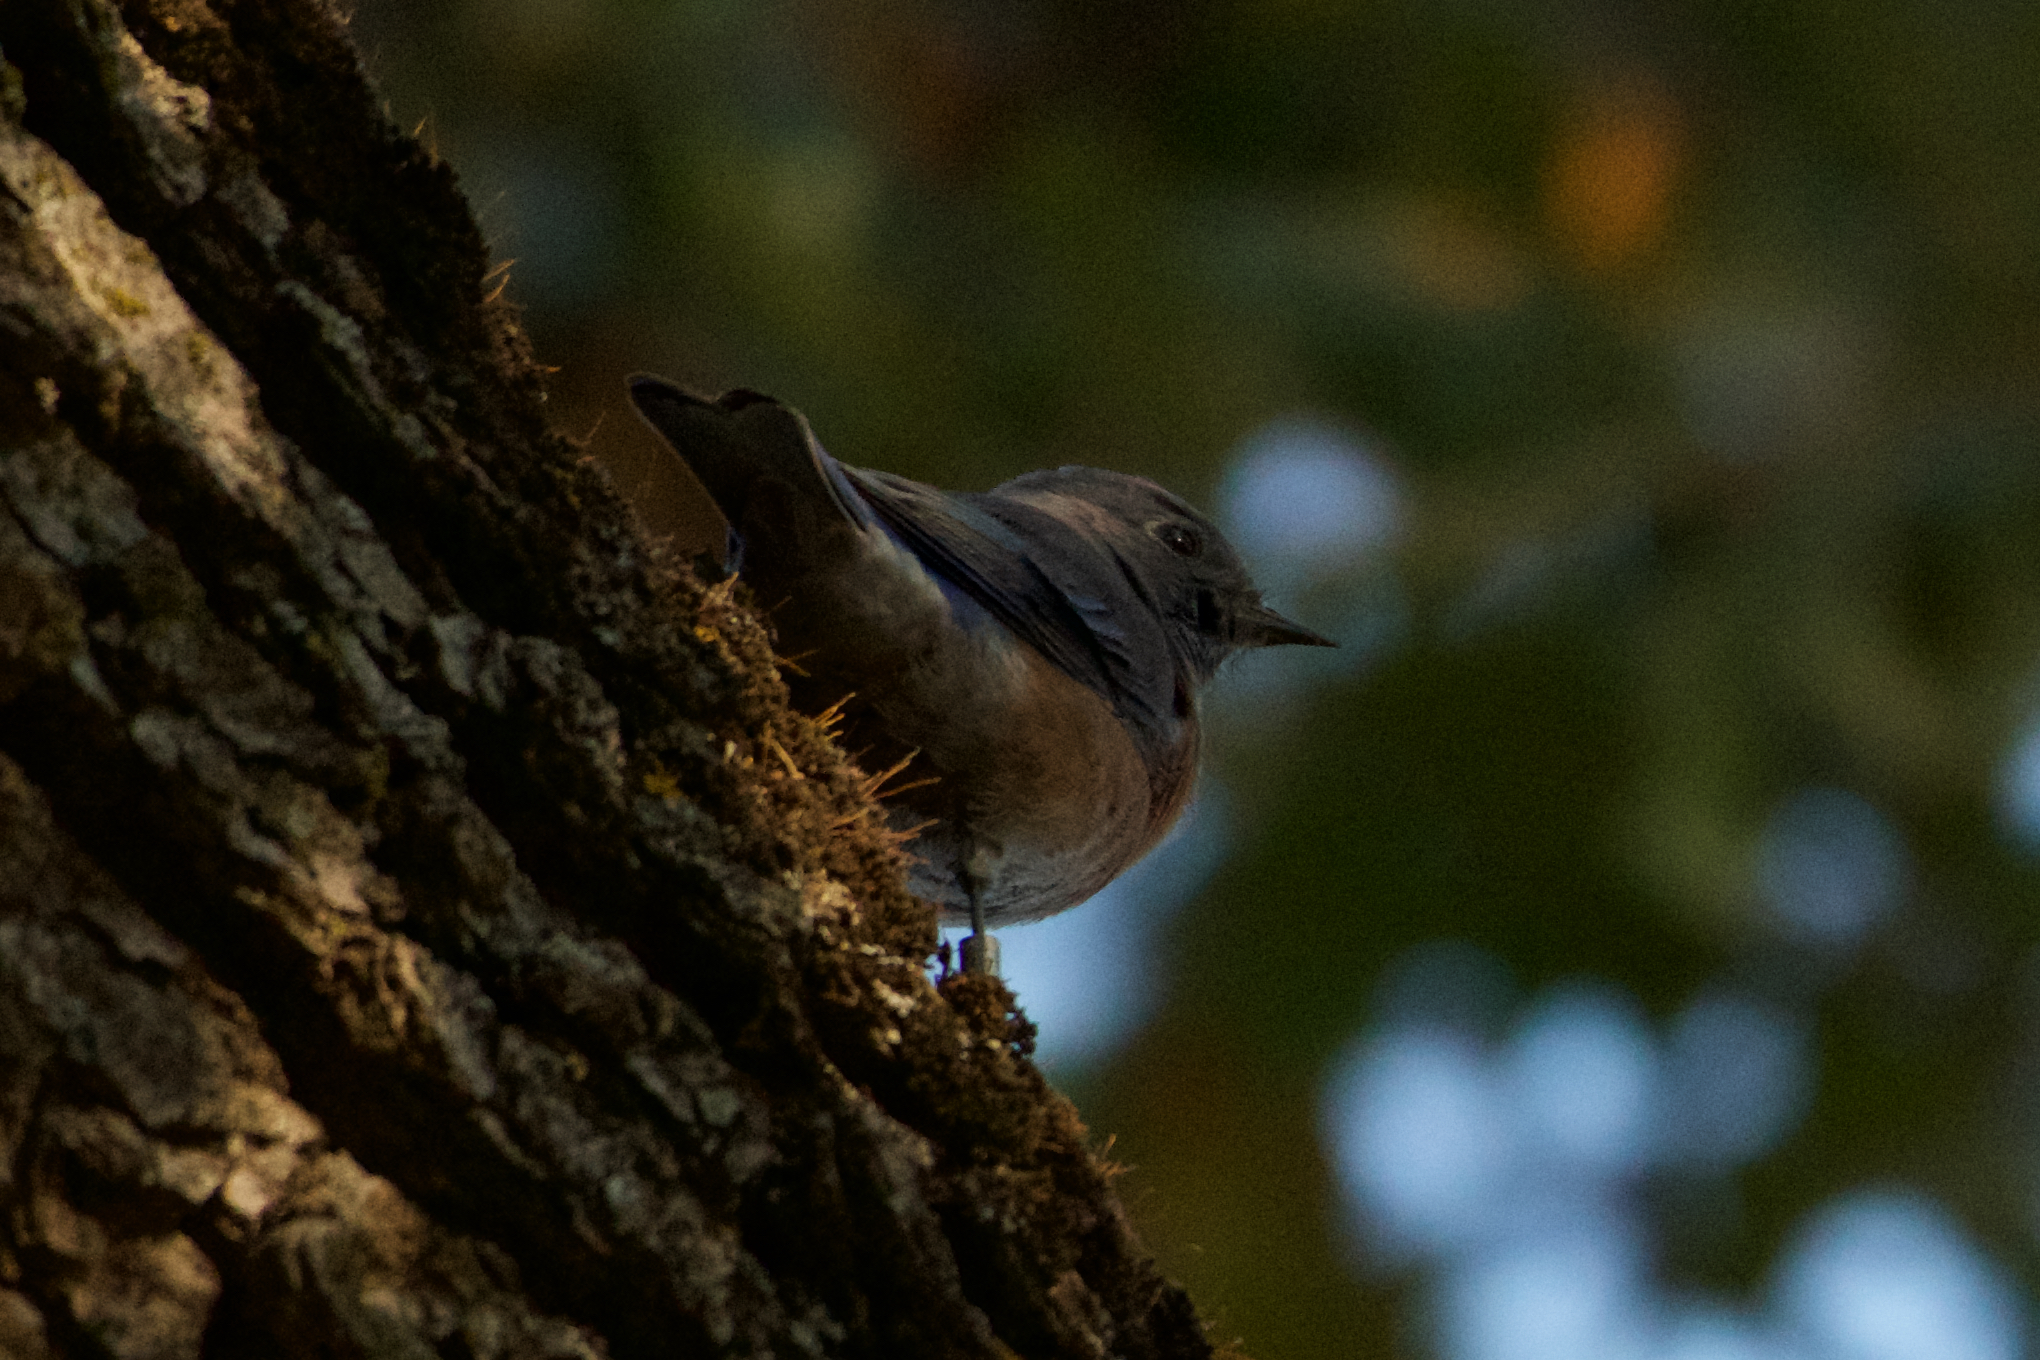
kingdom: Animalia
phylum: Chordata
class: Aves
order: Passeriformes
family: Turdidae
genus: Sialia
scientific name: Sialia mexicana
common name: Western bluebird
